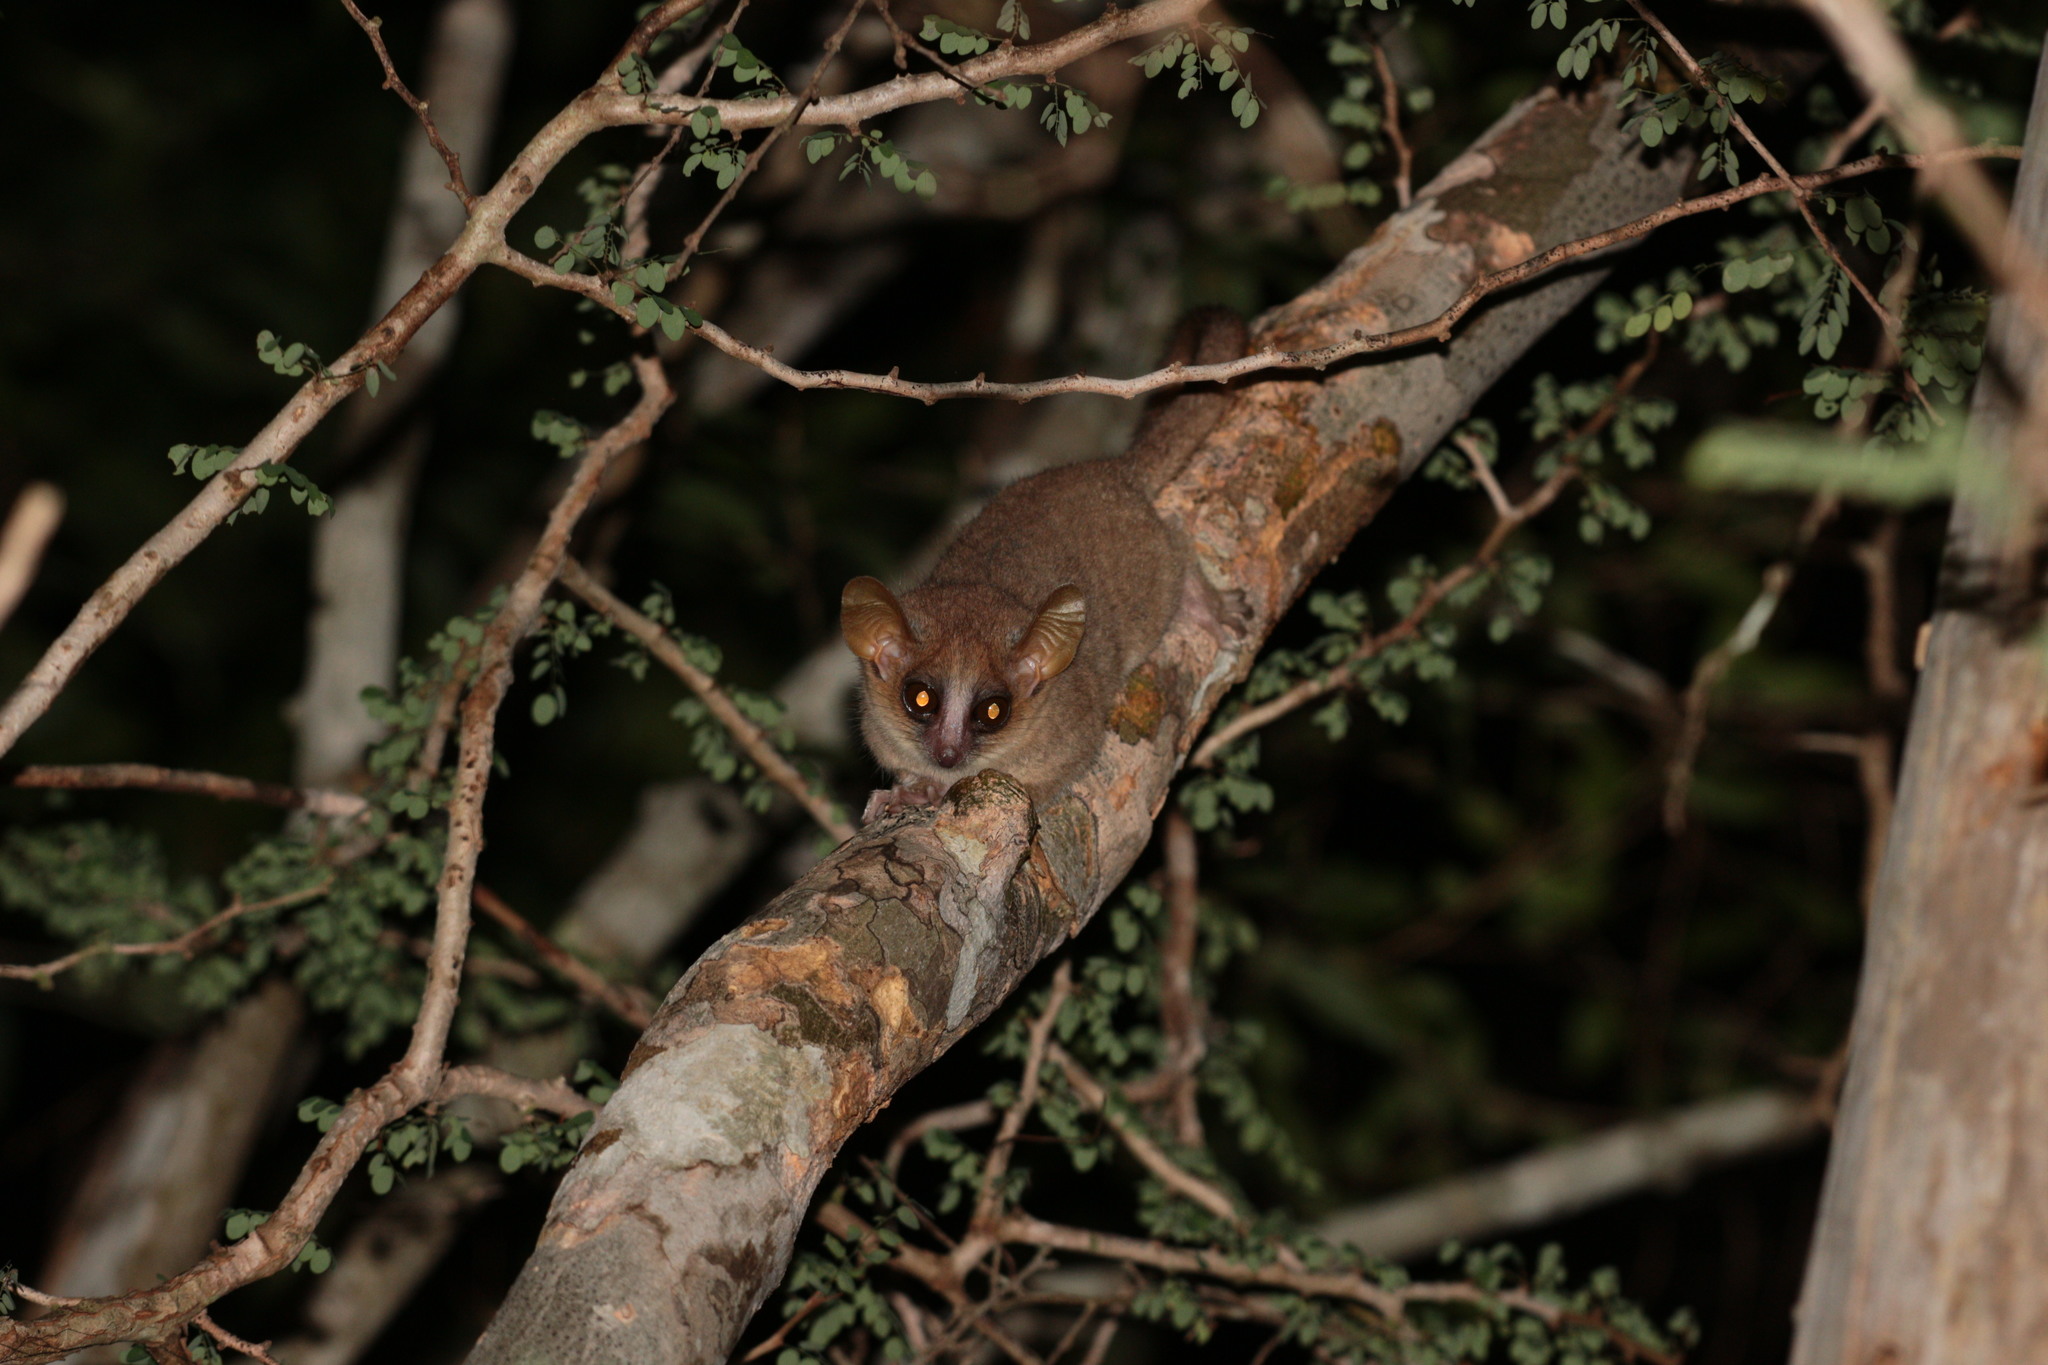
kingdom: Animalia
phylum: Chordata
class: Mammalia
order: Primates
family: Cheirogaleidae
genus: Microcebus
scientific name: Microcebus murinus
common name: Gray mouse lemur
